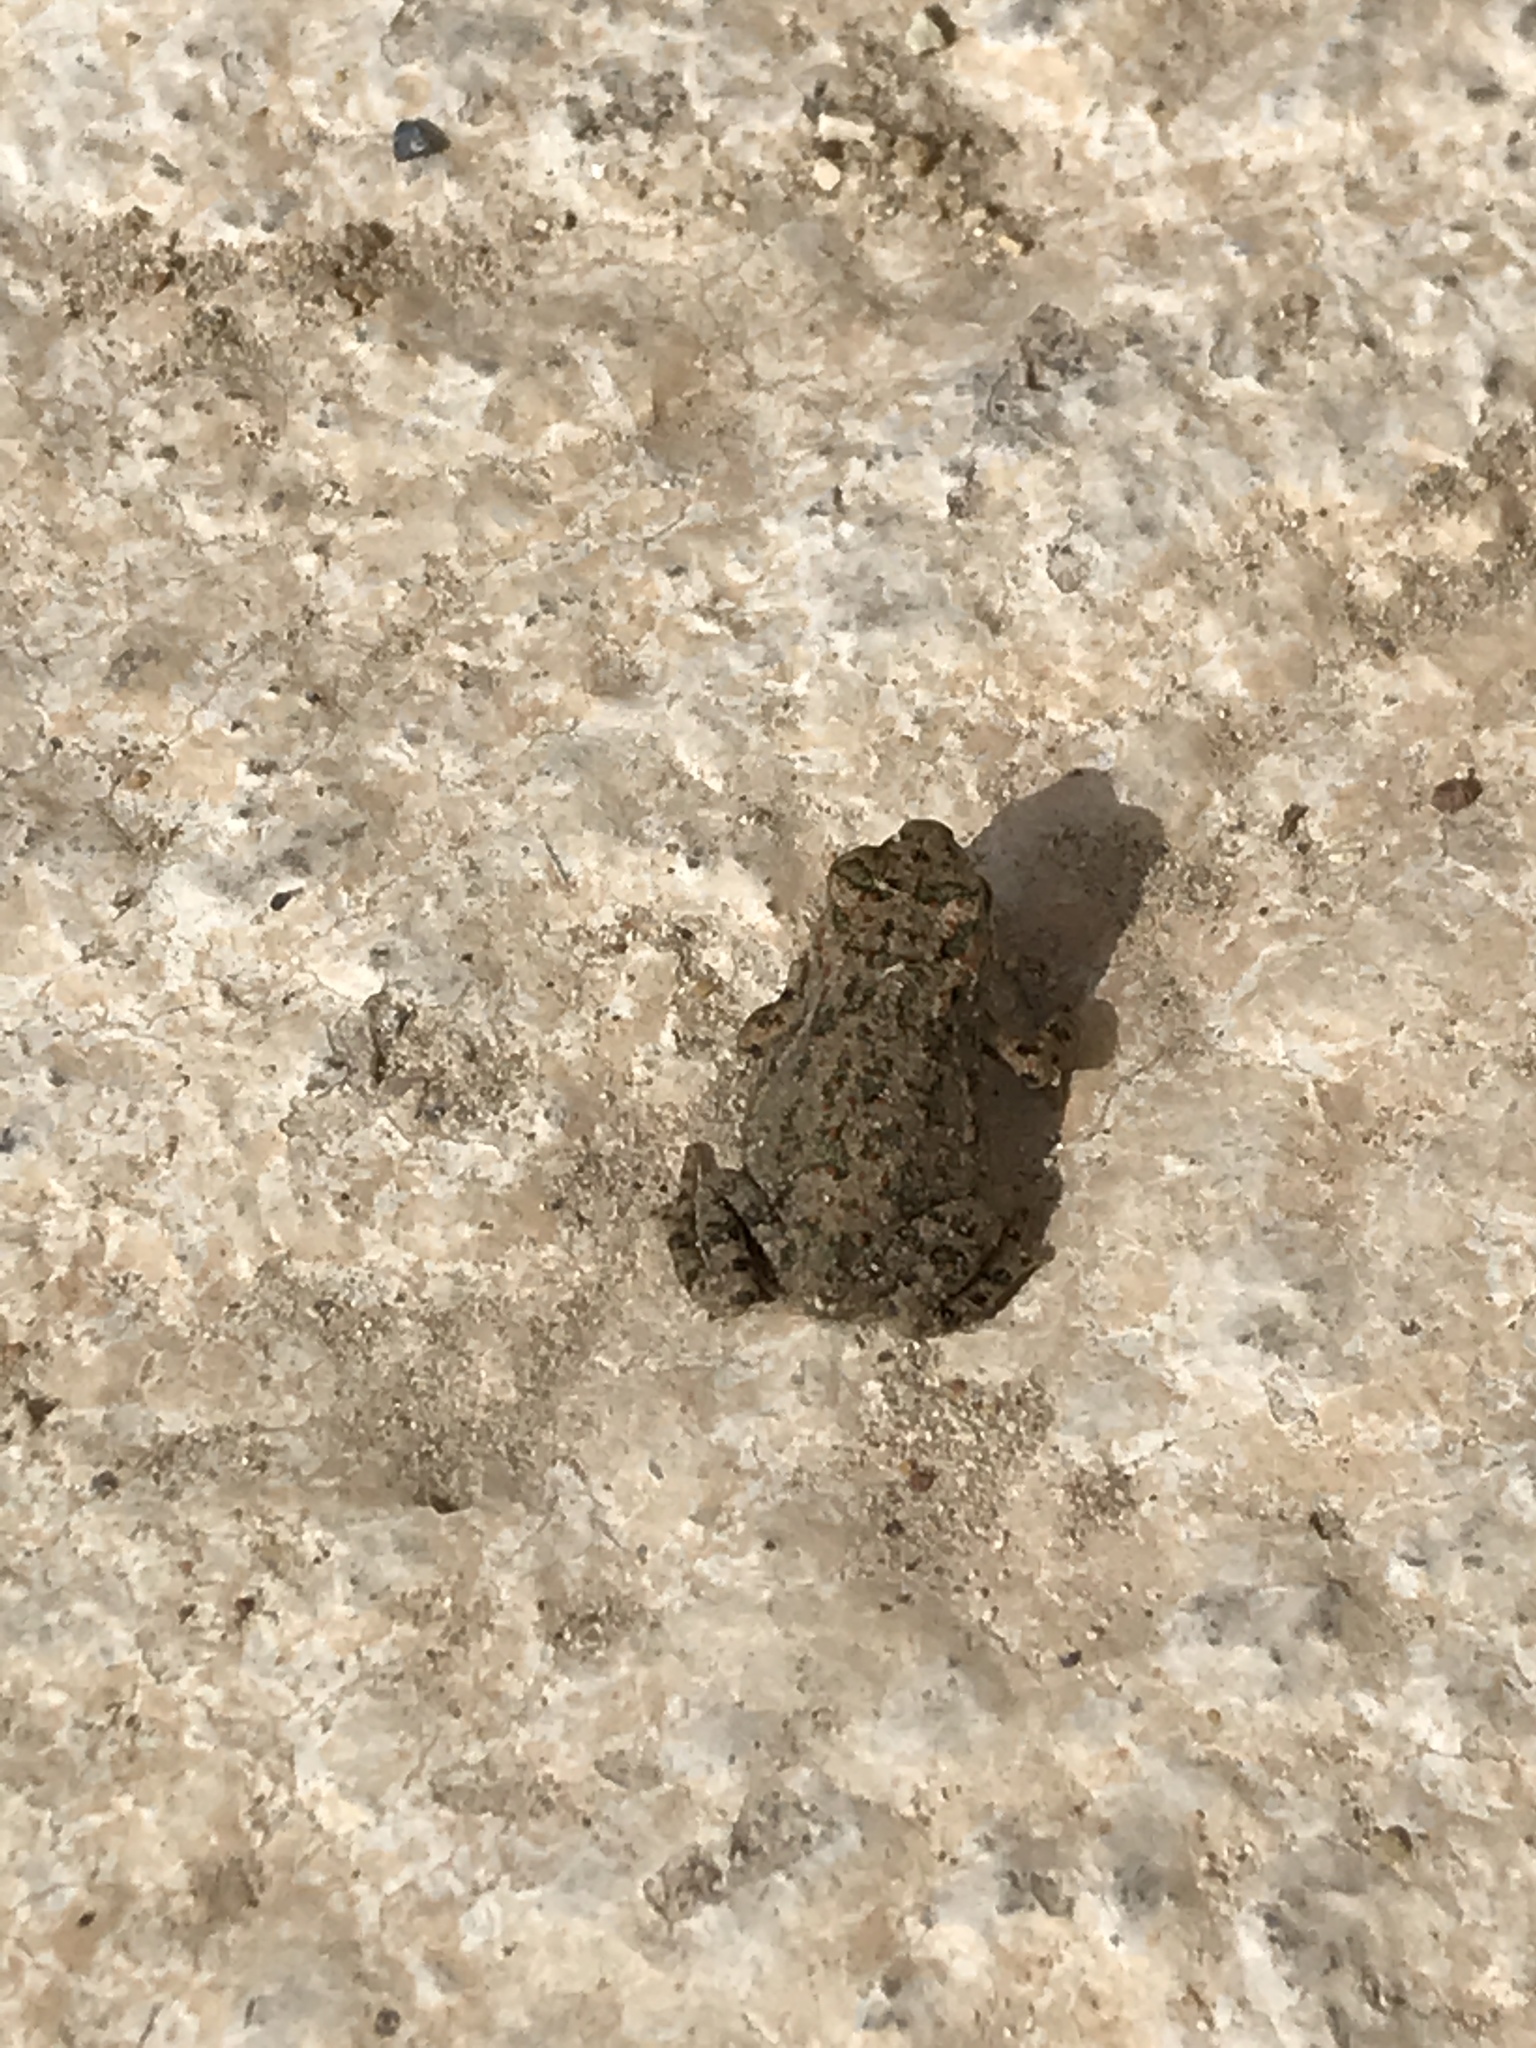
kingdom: Animalia
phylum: Chordata
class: Amphibia
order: Anura
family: Bufonidae
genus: Bufotes
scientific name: Bufotes viridis
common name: European green toad
